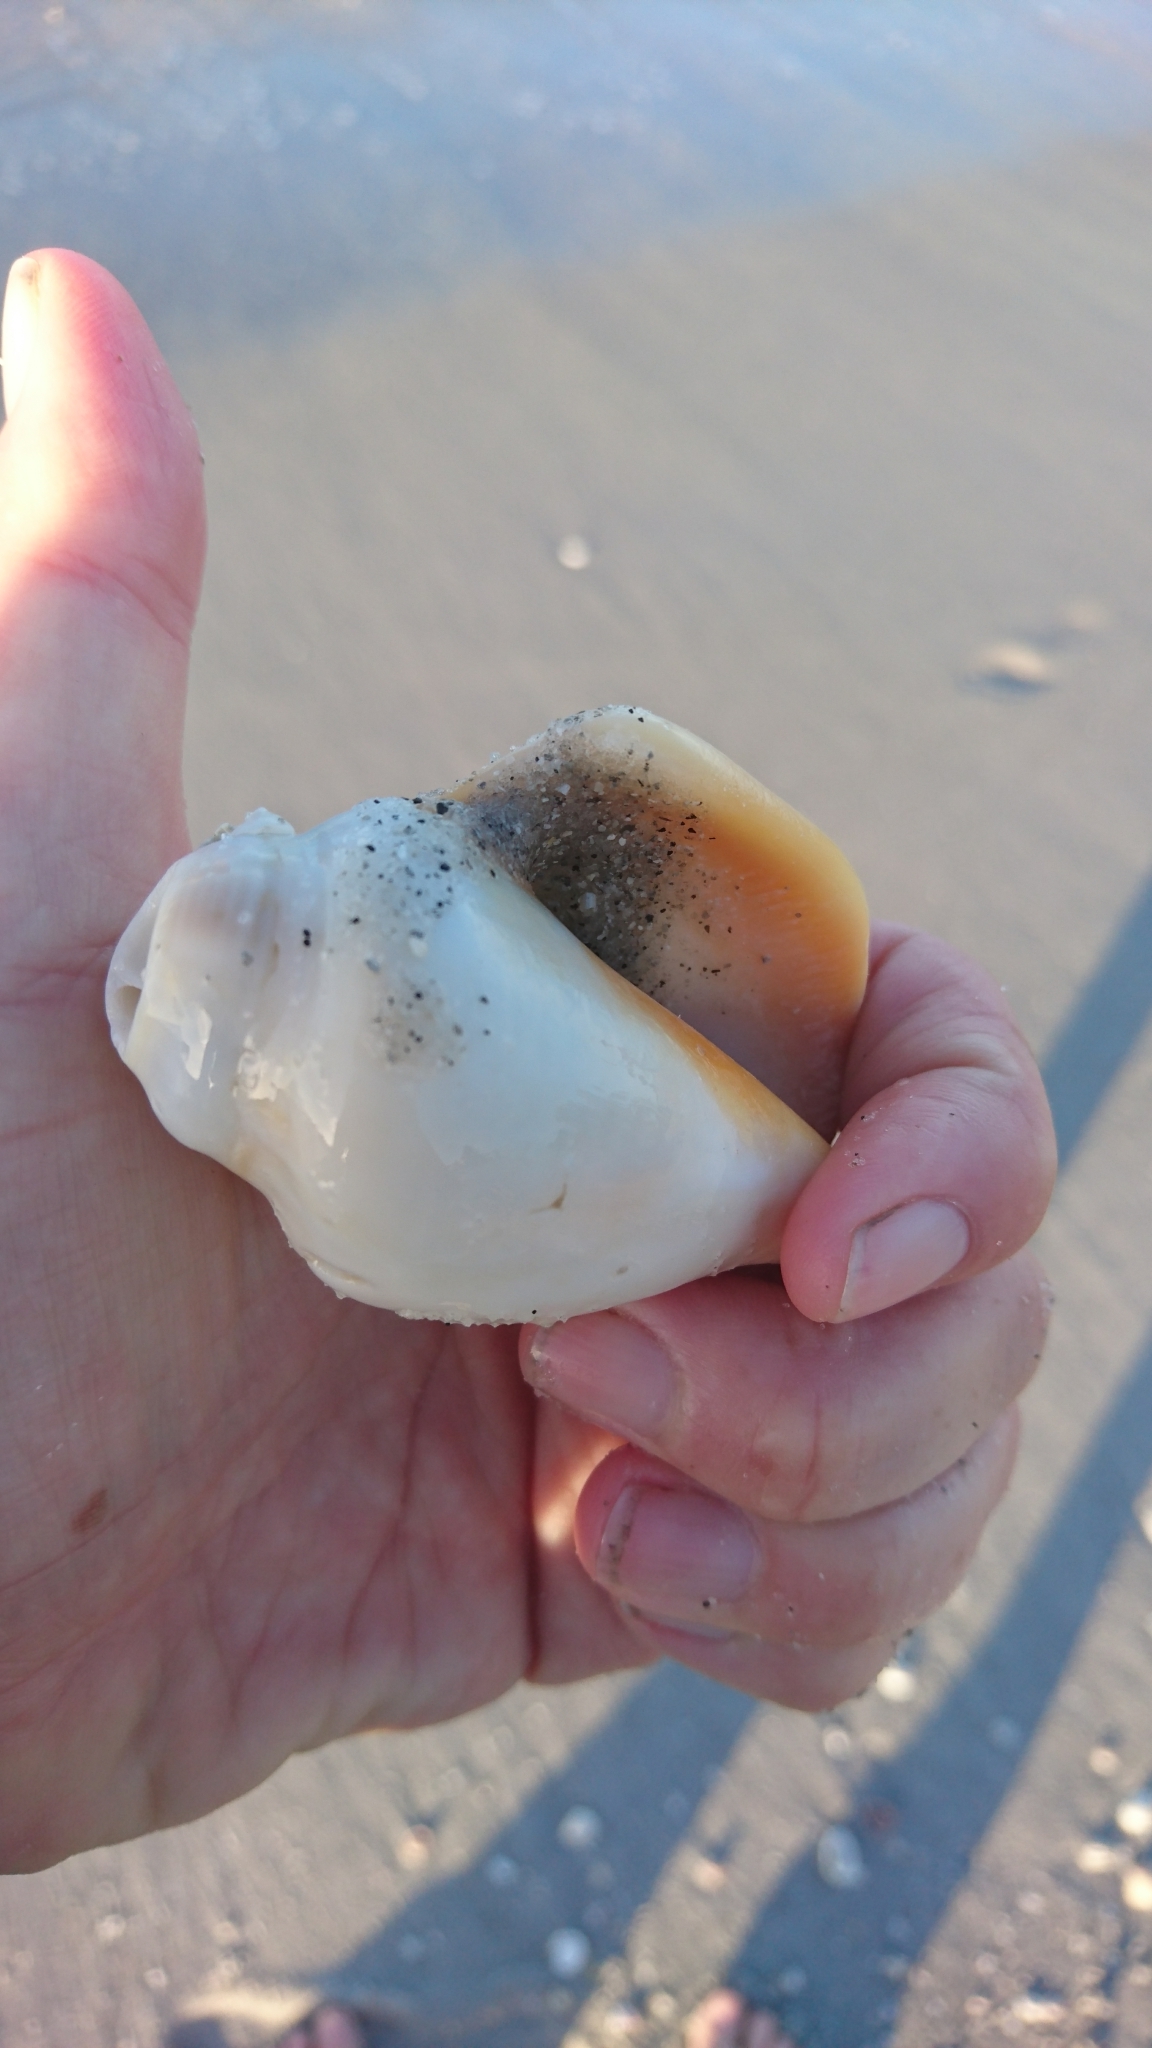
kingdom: Animalia
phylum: Mollusca
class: Gastropoda
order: Littorinimorpha
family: Strombidae
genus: Strombus
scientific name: Strombus alatus
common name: Florida fighting conch
